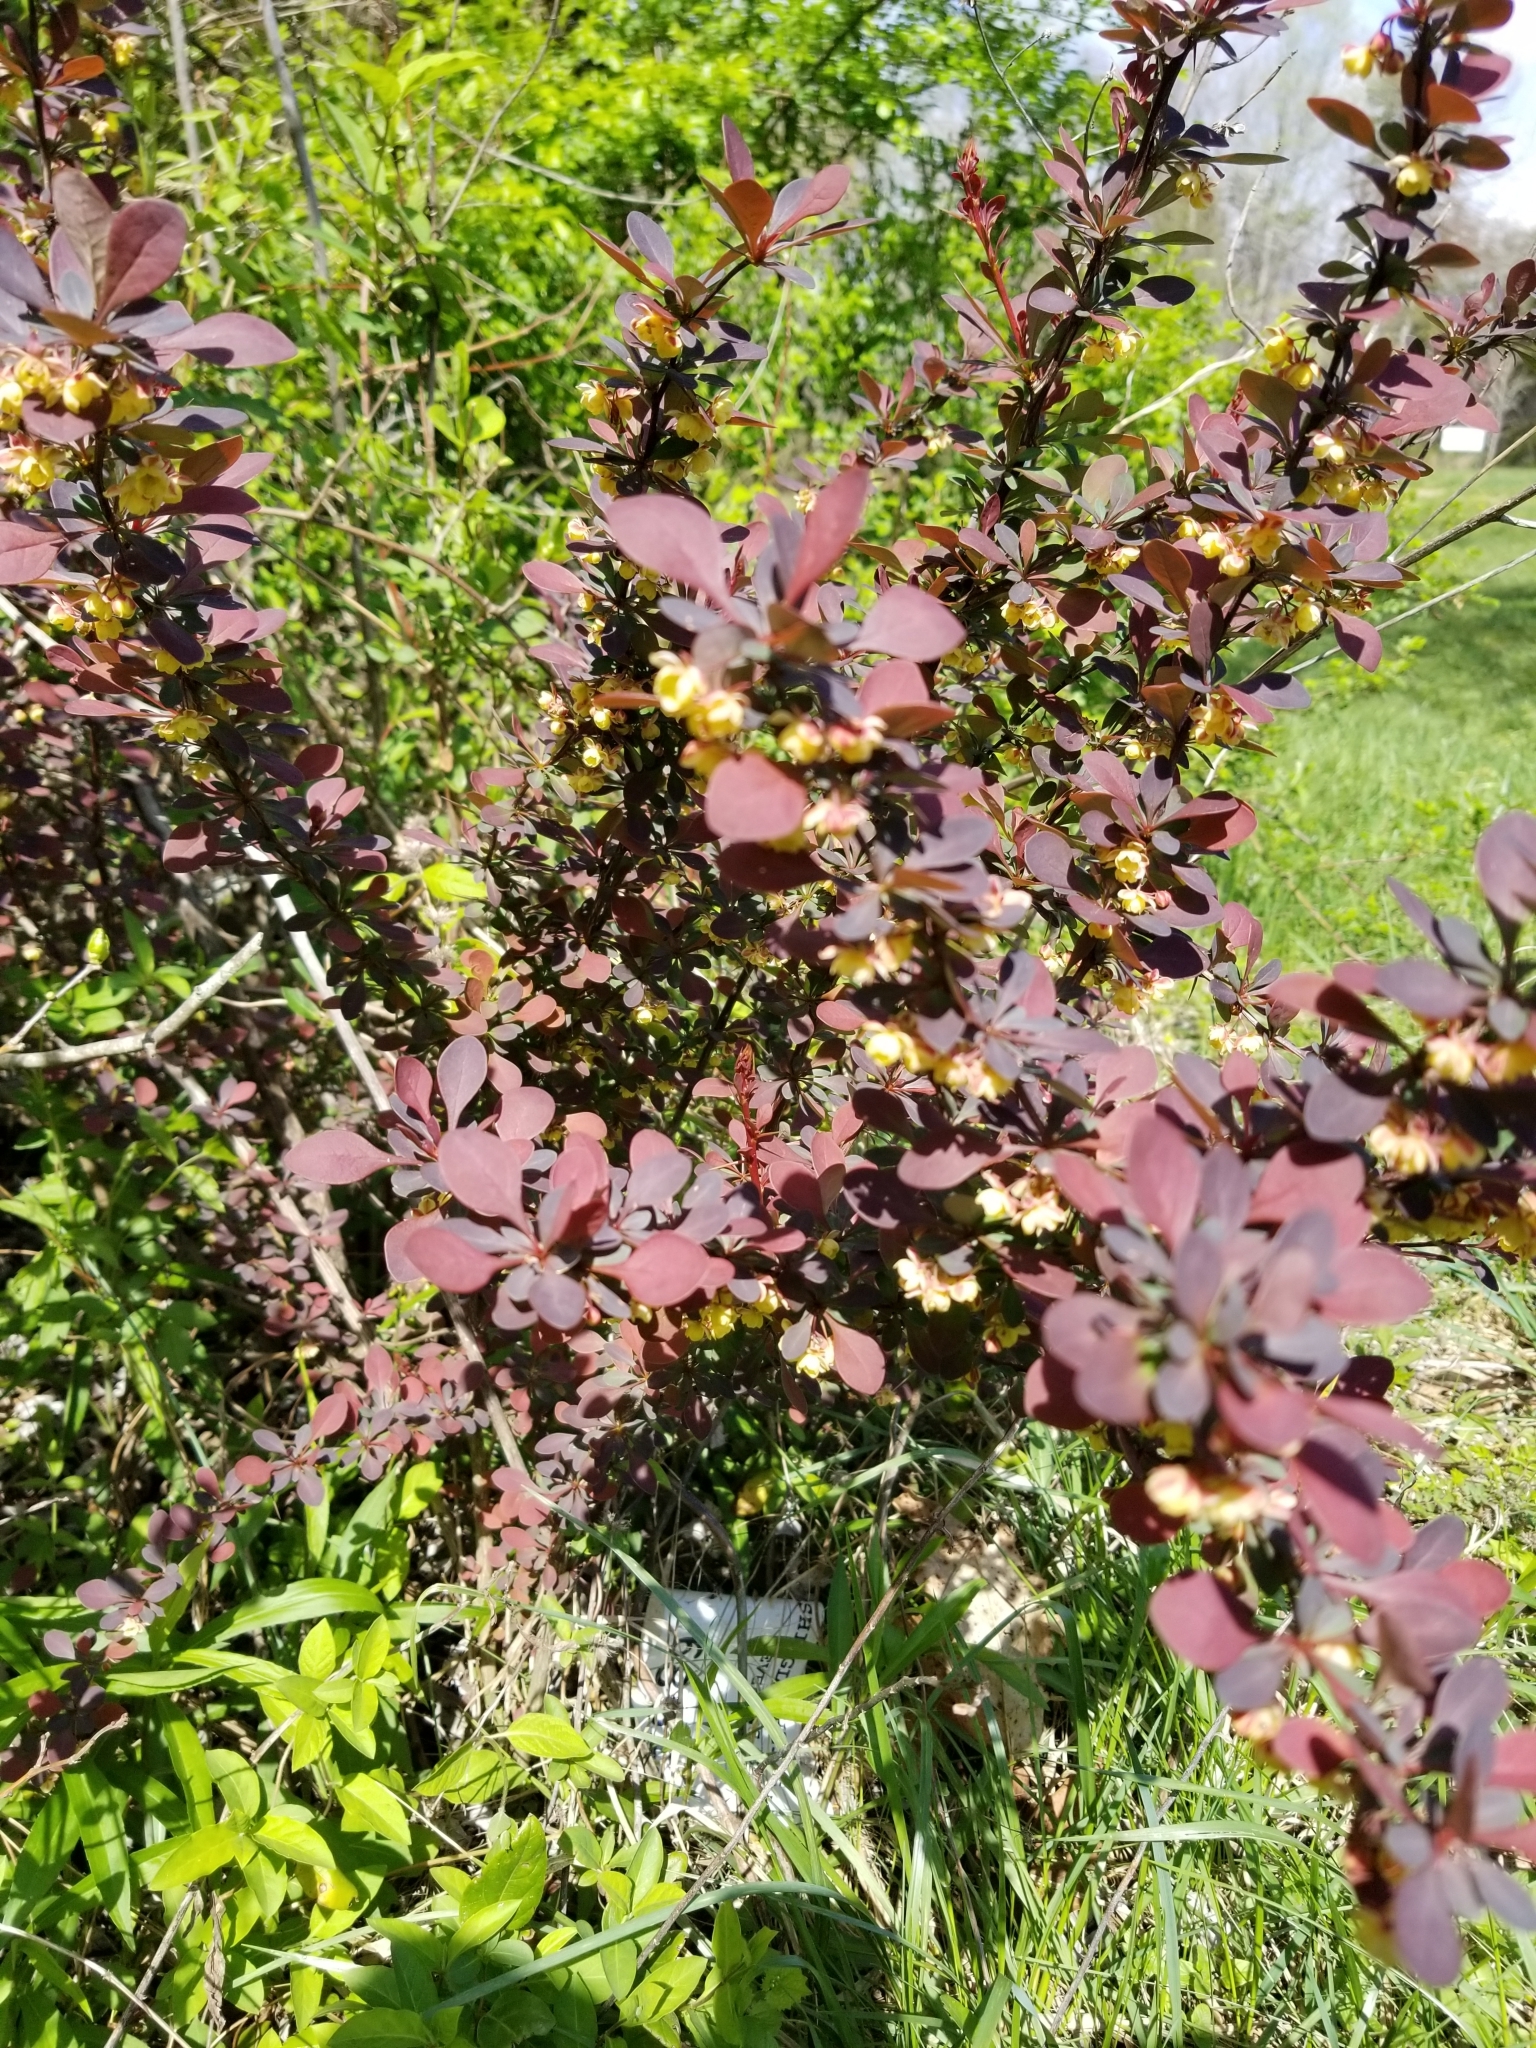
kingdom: Plantae
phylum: Tracheophyta
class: Magnoliopsida
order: Ranunculales
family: Berberidaceae
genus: Berberis
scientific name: Berberis thunbergii
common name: Japanese barberry
